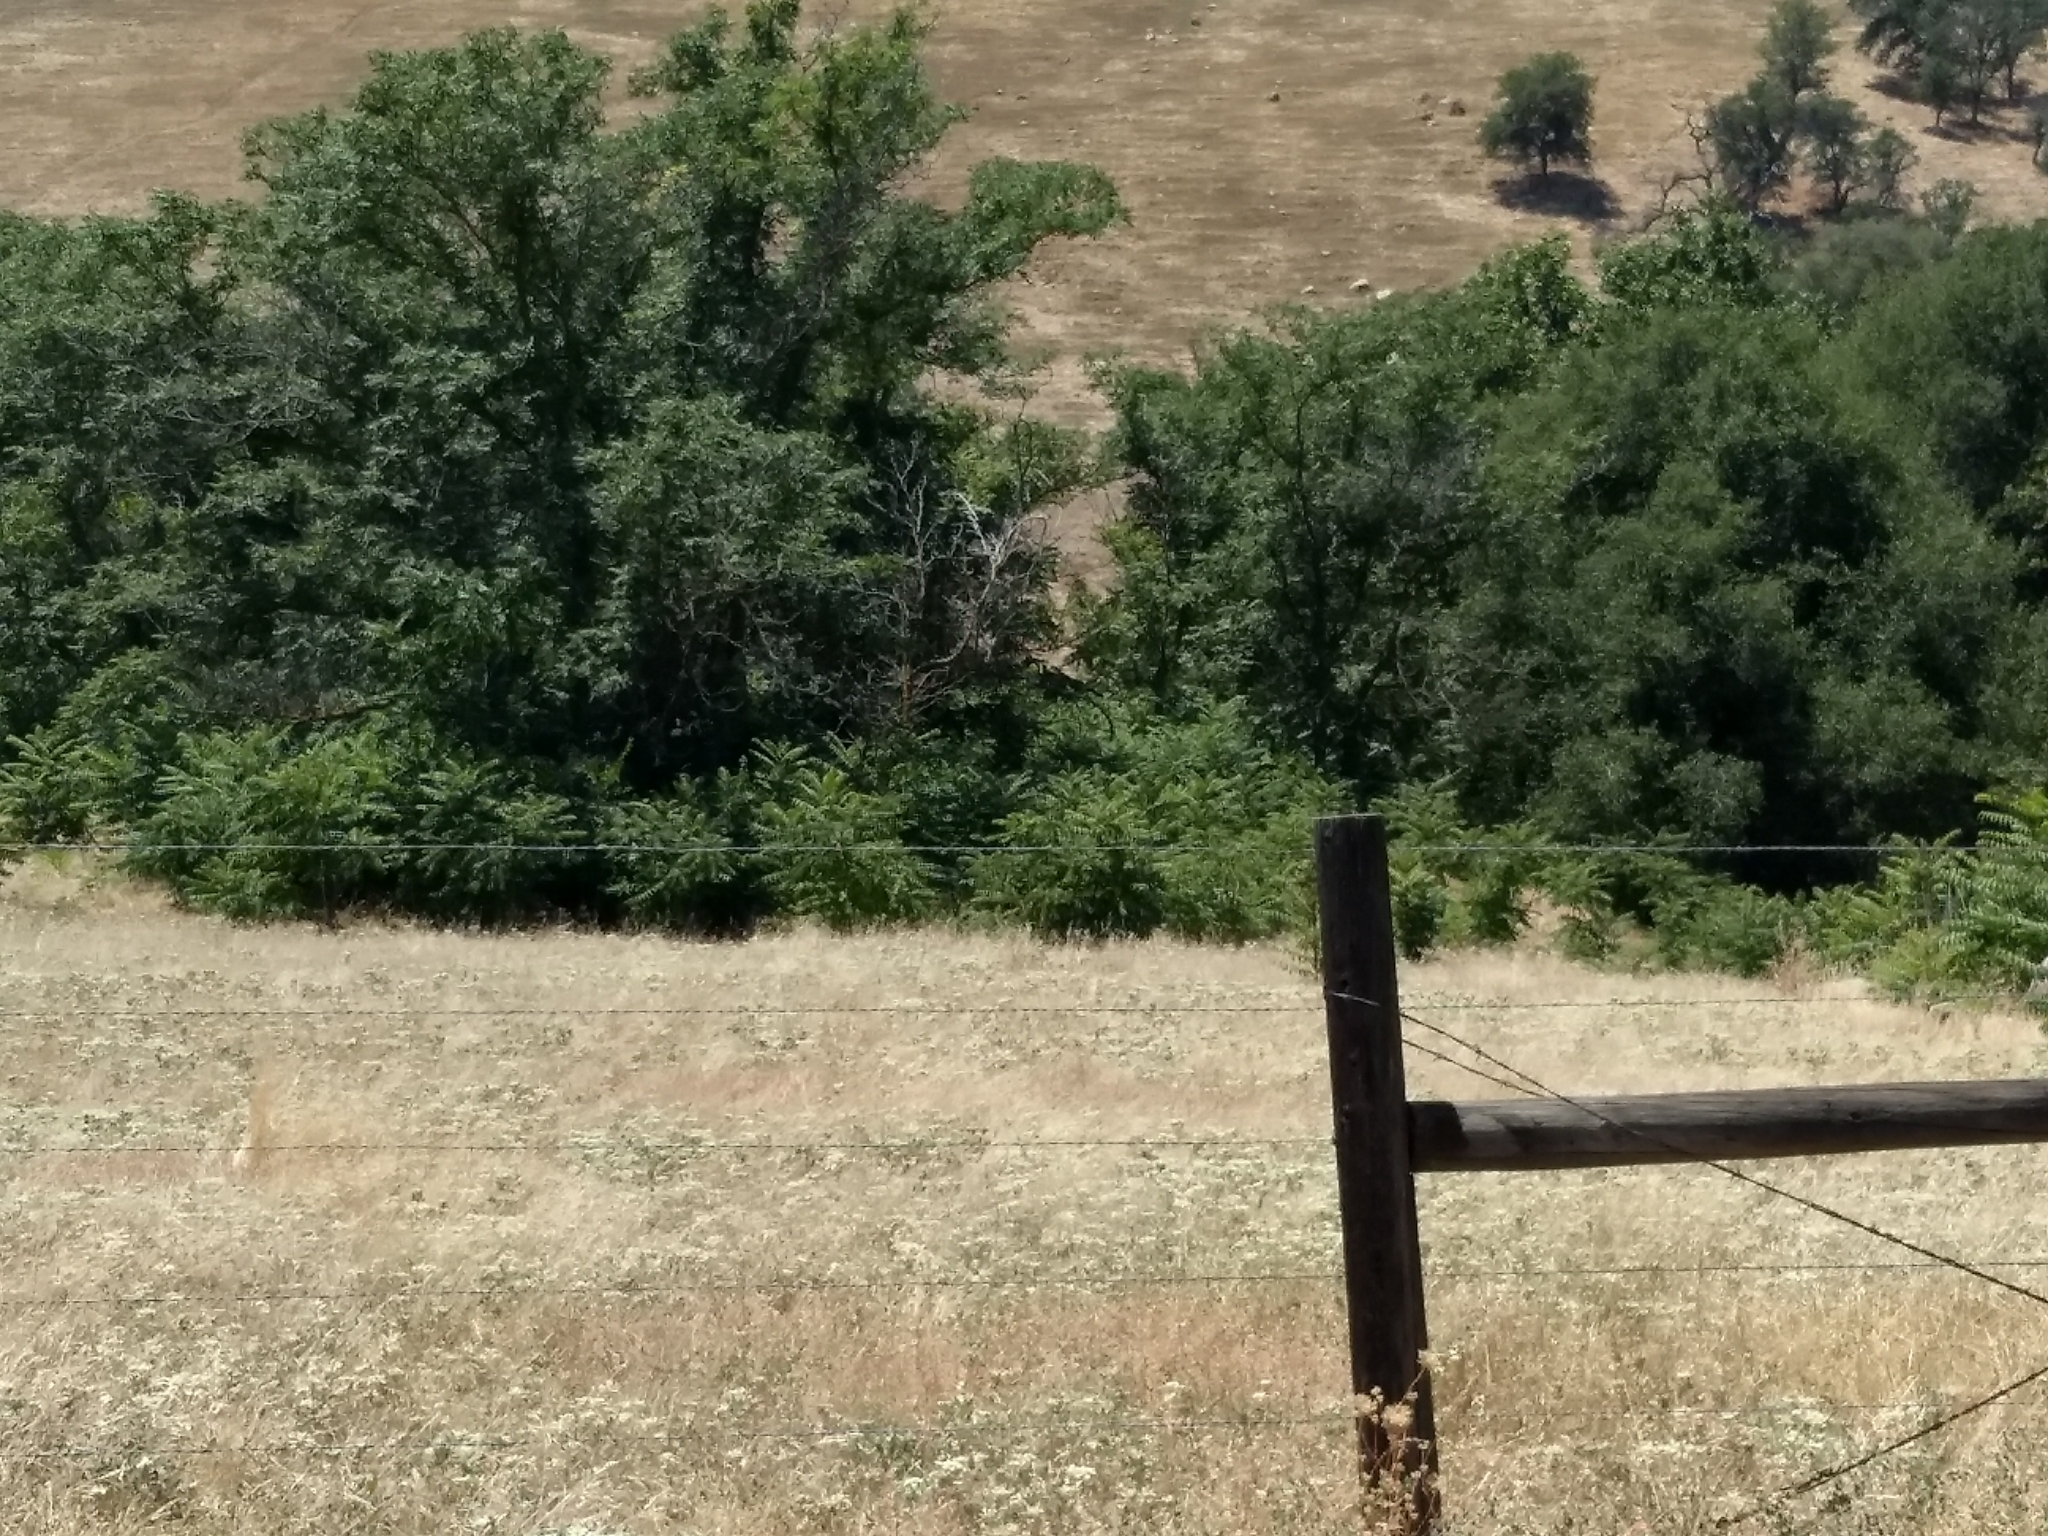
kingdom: Plantae
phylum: Tracheophyta
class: Magnoliopsida
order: Sapindales
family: Simaroubaceae
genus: Ailanthus
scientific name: Ailanthus altissima
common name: Tree-of-heaven
